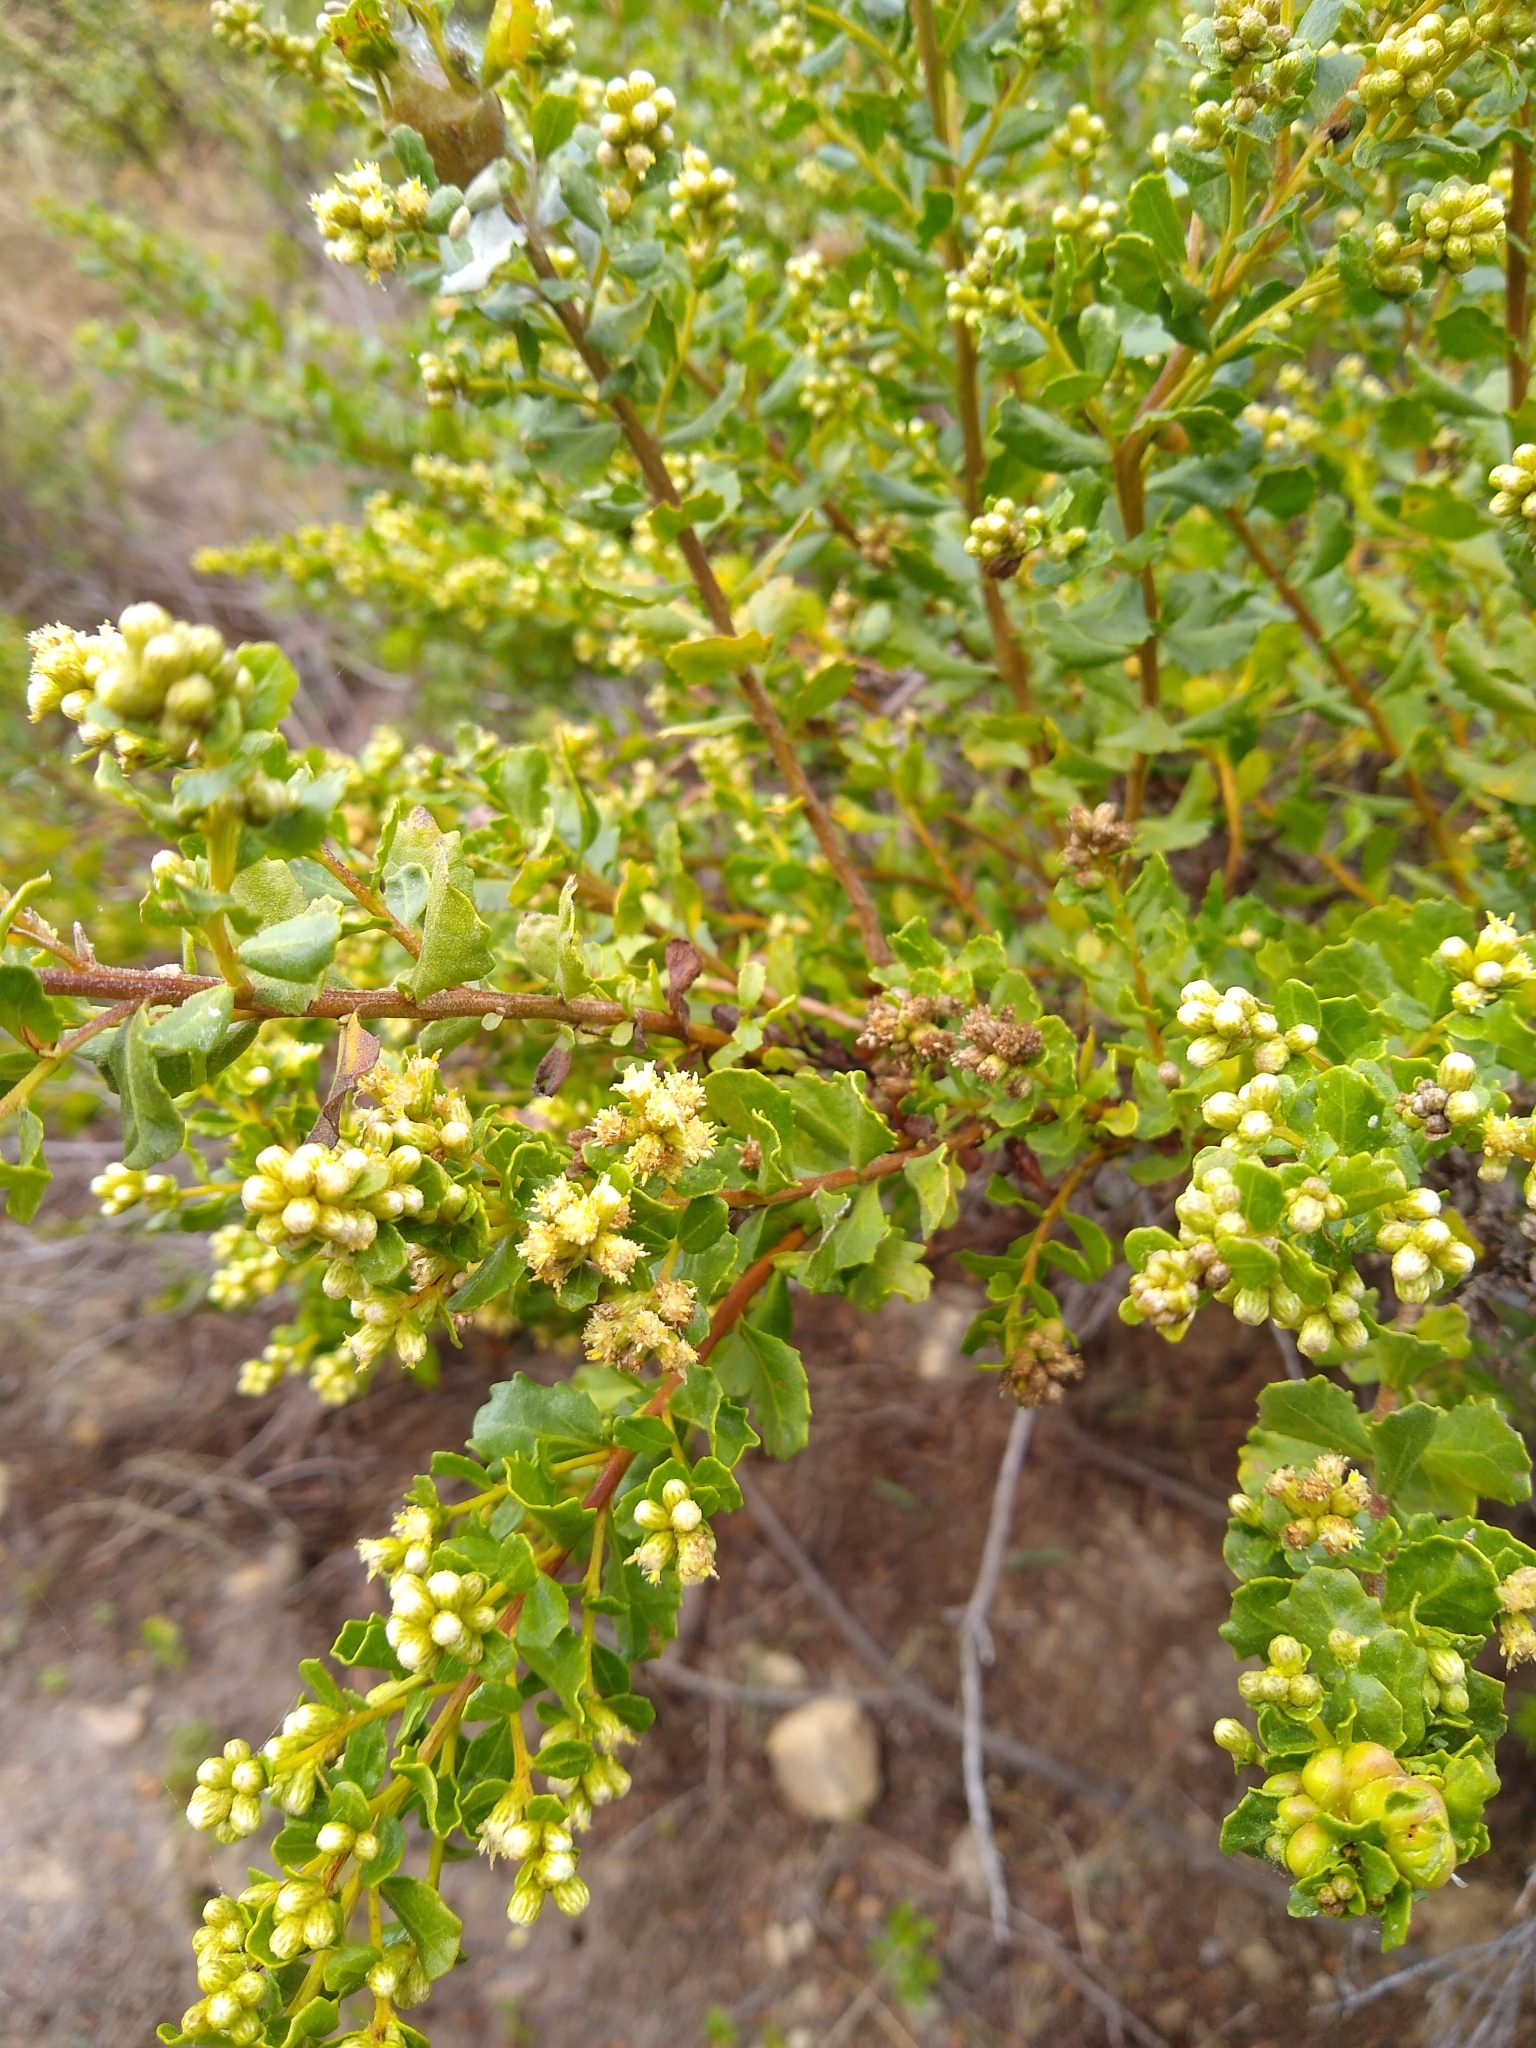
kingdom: Plantae
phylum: Tracheophyta
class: Magnoliopsida
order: Asterales
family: Asteraceae
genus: Baccharis
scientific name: Baccharis pilularis
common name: Coyotebrush
